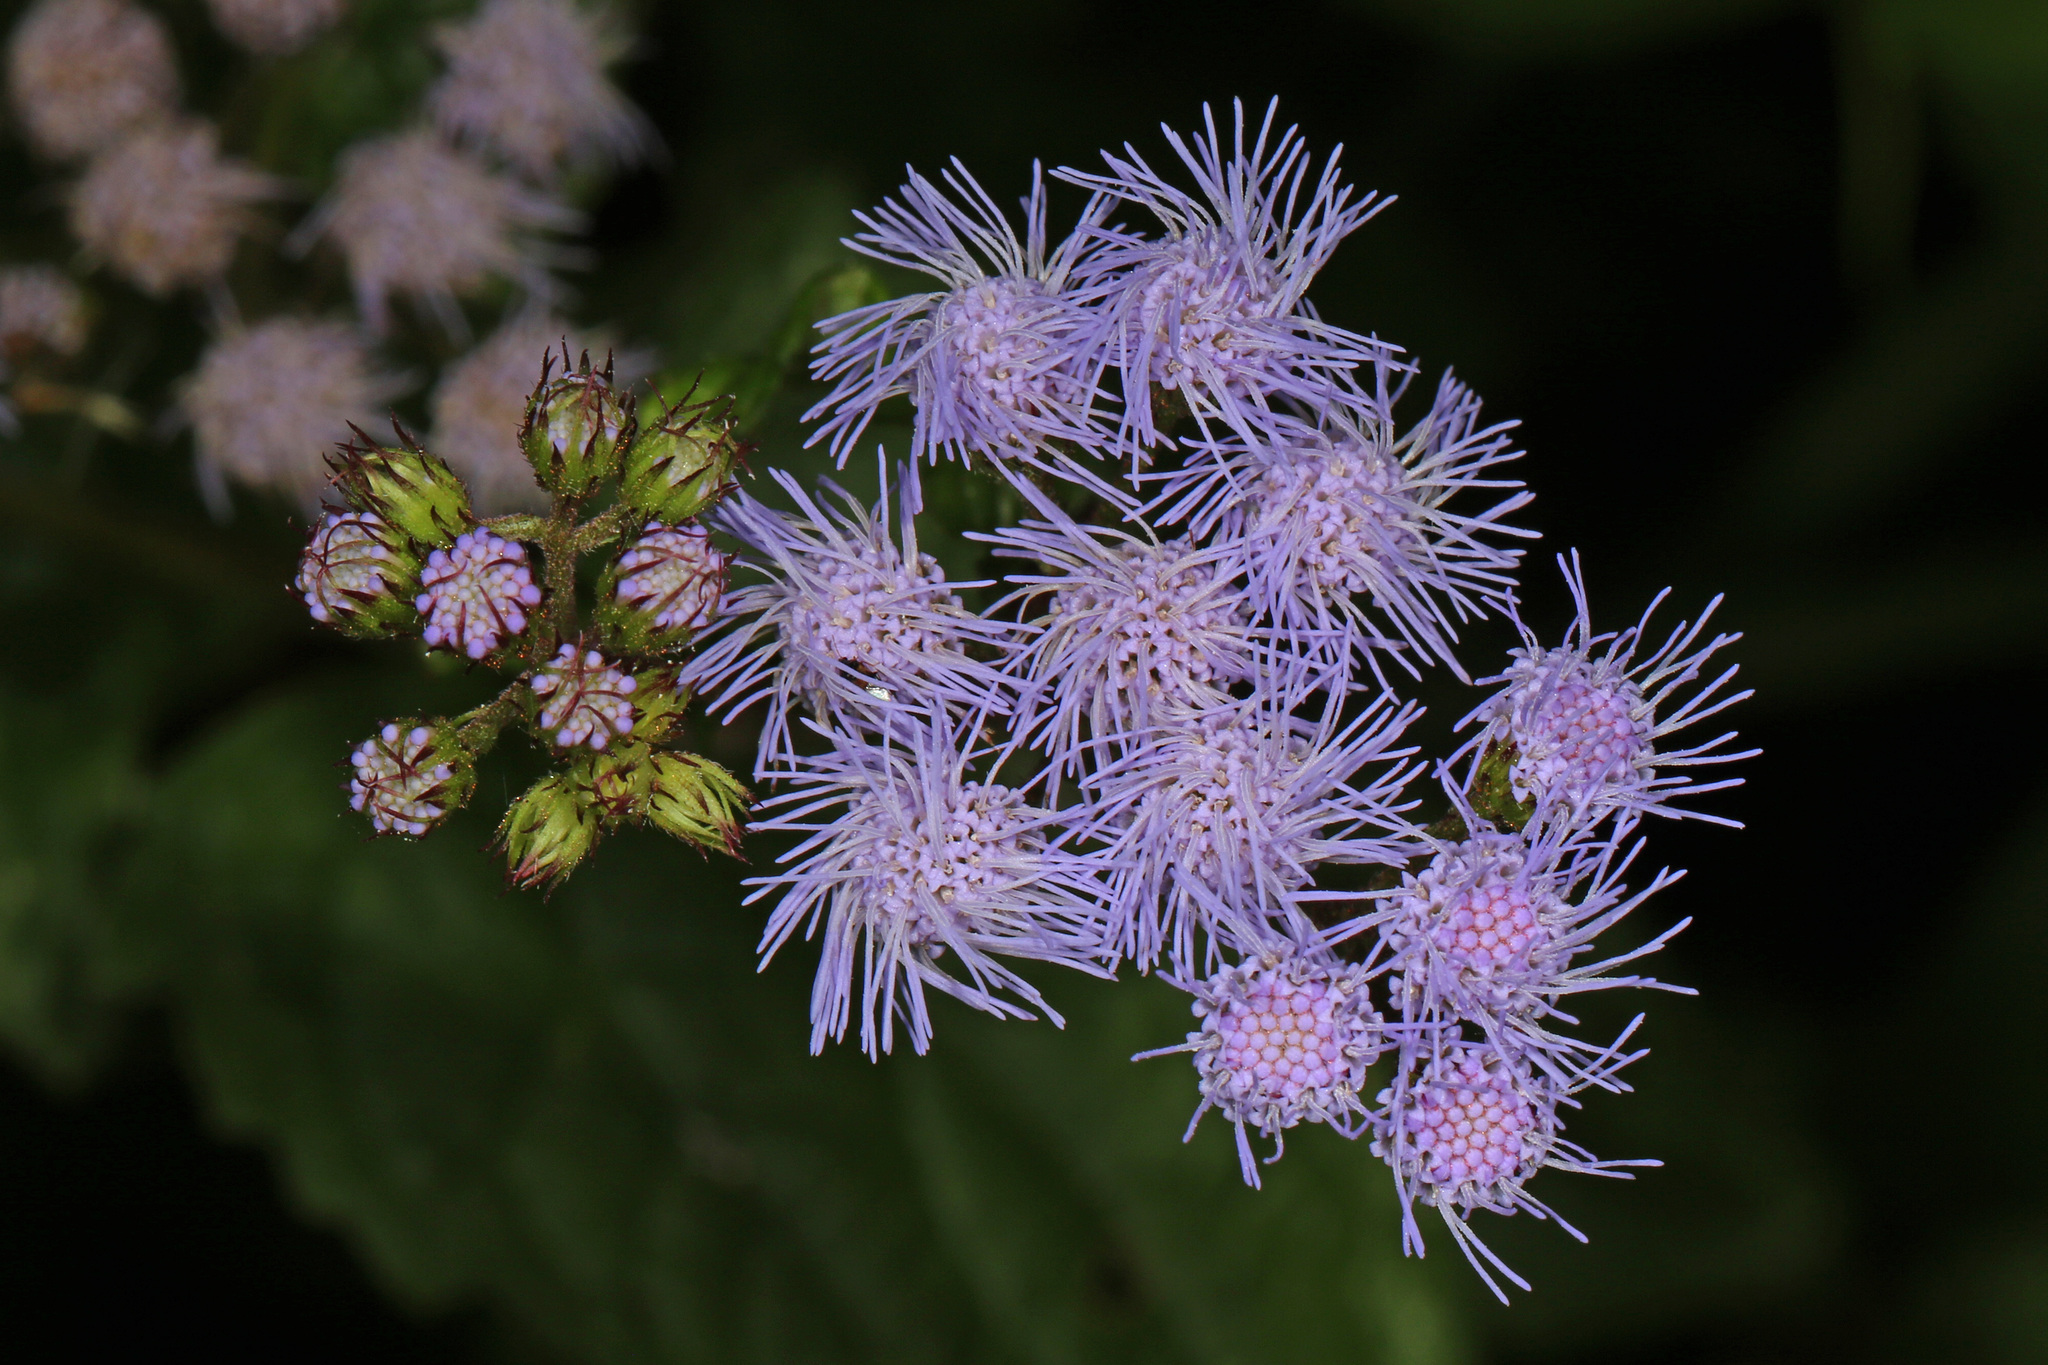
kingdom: Plantae
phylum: Tracheophyta
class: Magnoliopsida
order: Asterales
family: Asteraceae
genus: Conoclinium
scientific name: Conoclinium coelestinum
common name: Blue mistflower
